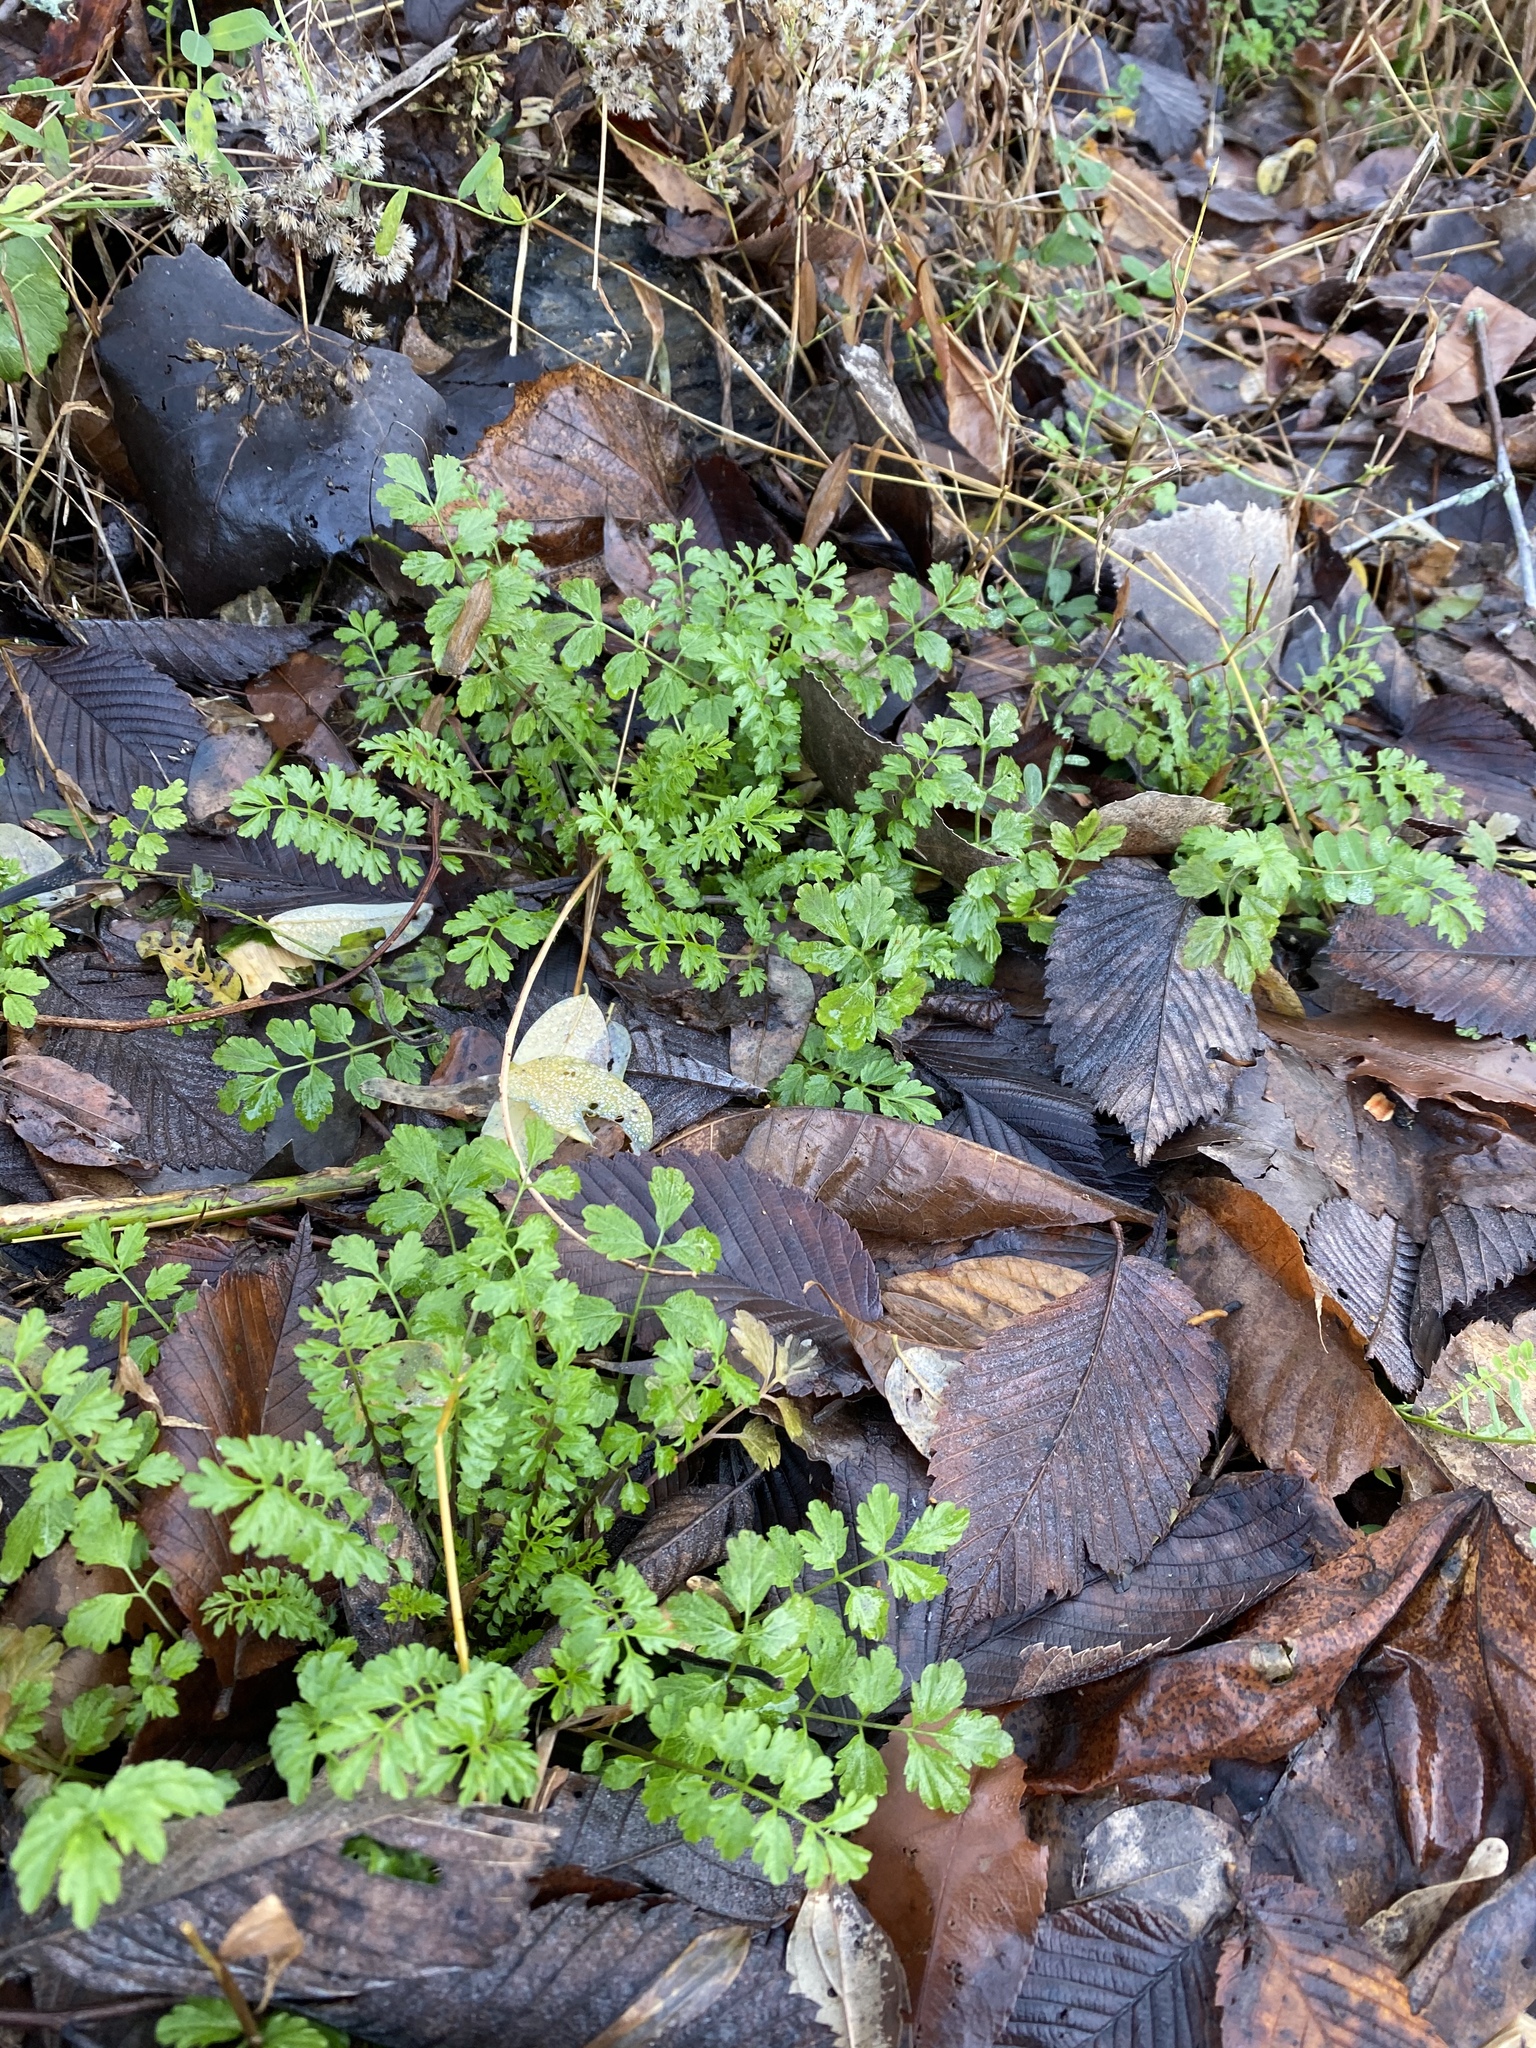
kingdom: Plantae
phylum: Tracheophyta
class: Magnoliopsida
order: Brassicales
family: Brassicaceae
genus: Cardamine
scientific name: Cardamine impatiens
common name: Narrow-leaved bitter-cress
